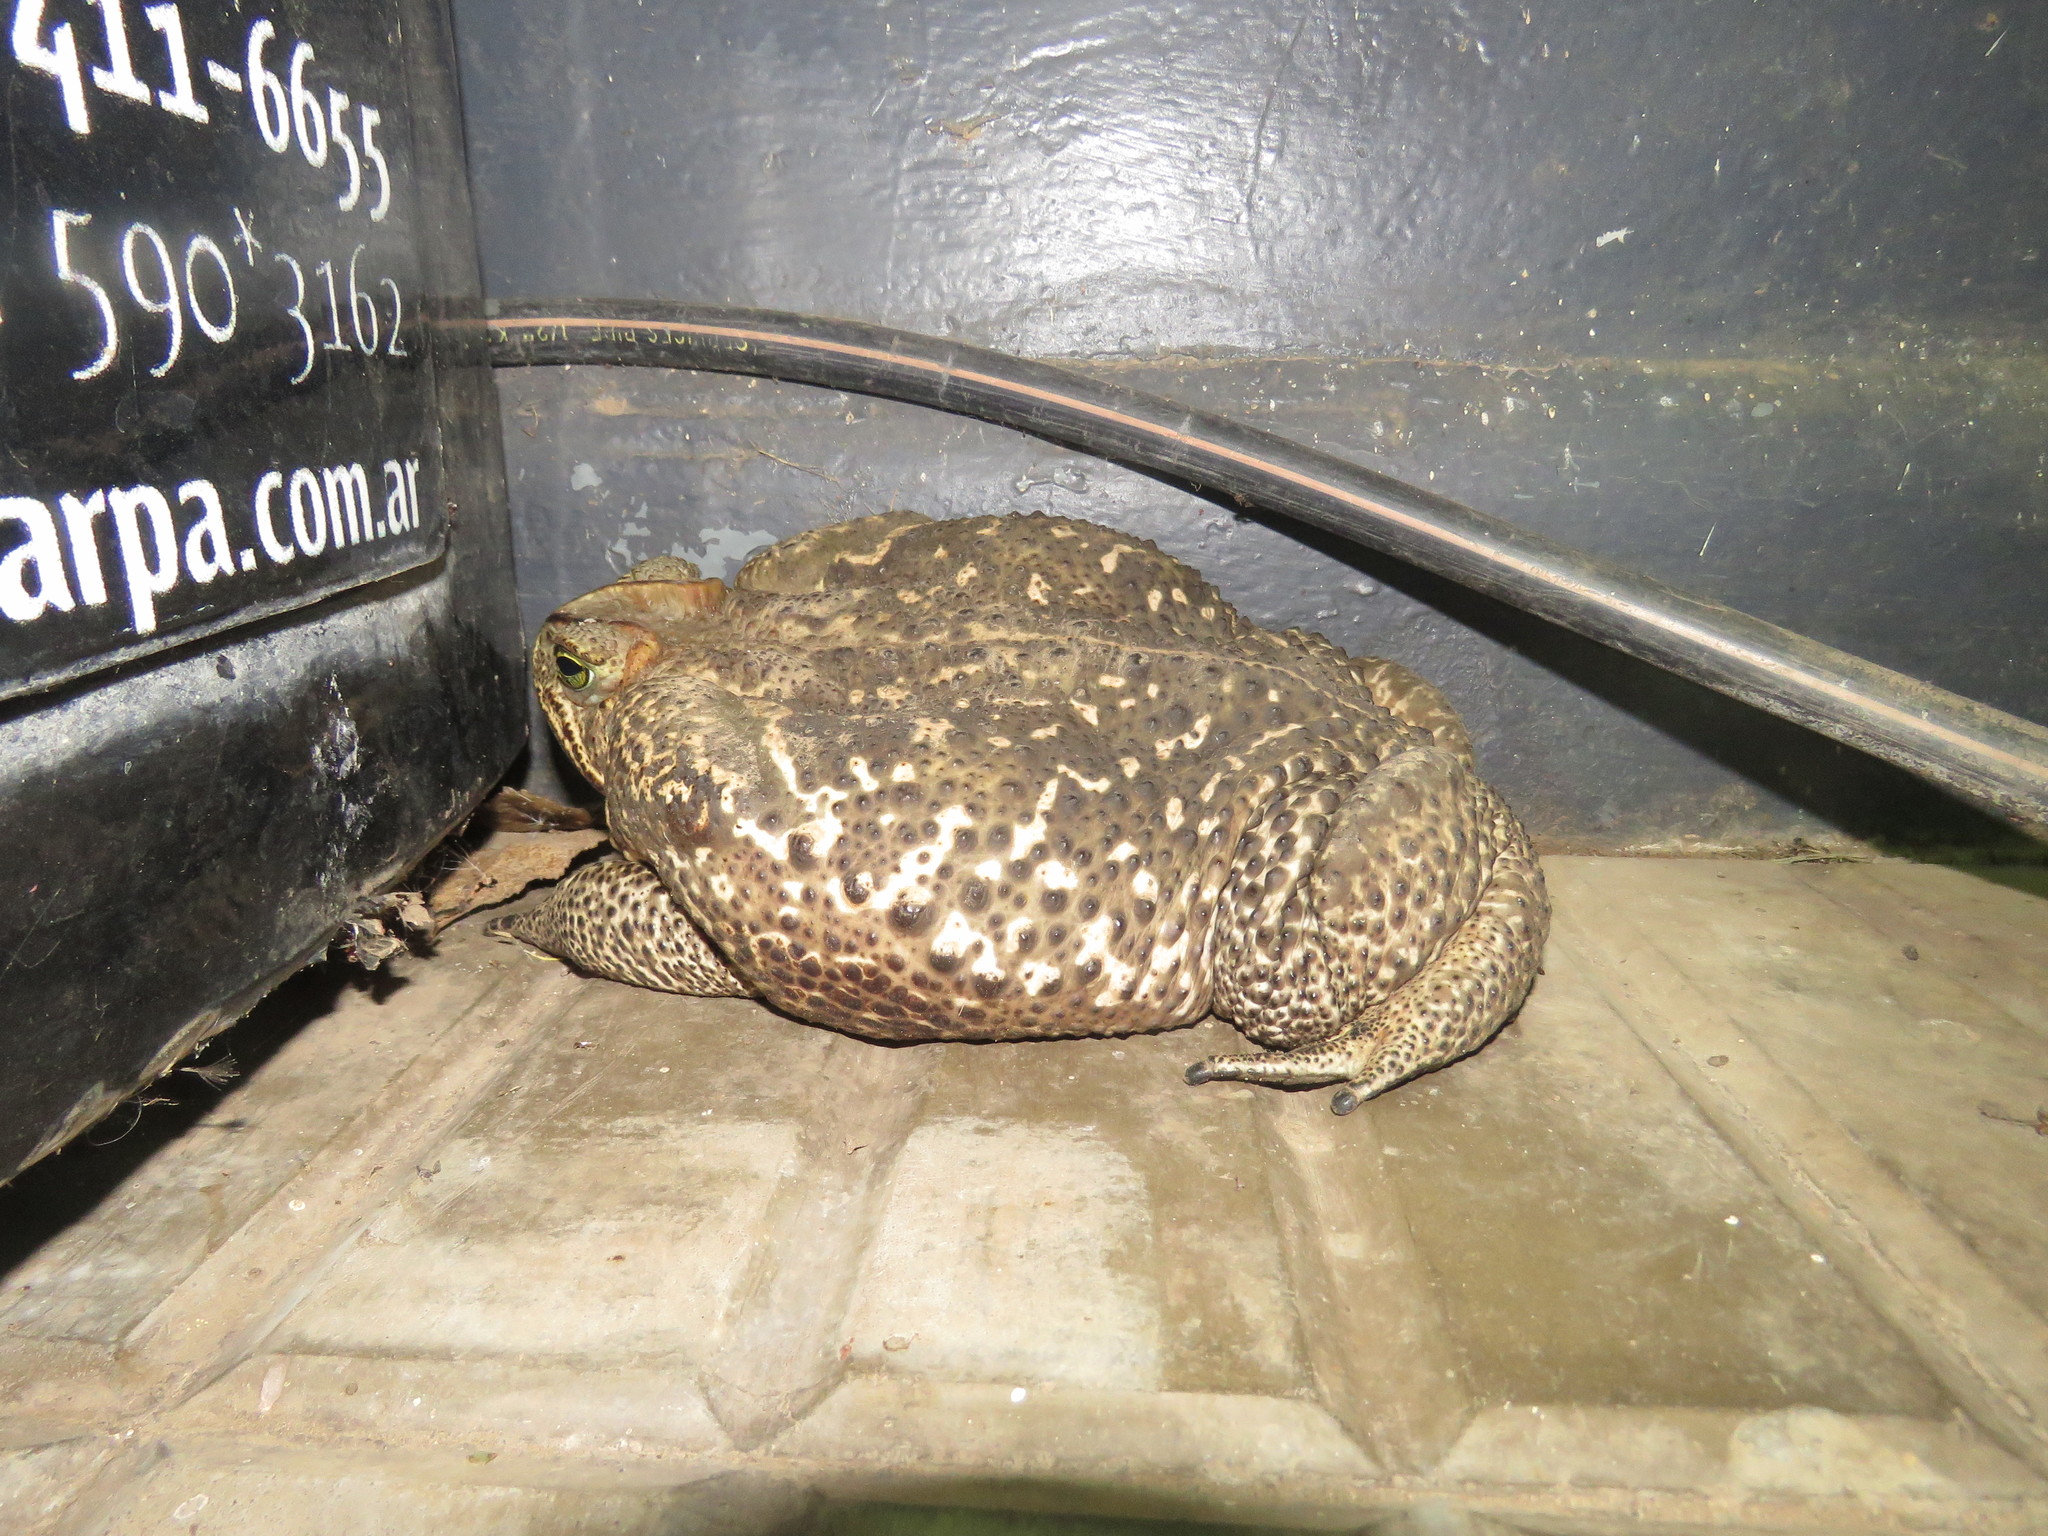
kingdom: Animalia
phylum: Chordata
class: Amphibia
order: Anura
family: Bufonidae
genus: Rhinella
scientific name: Rhinella diptycha
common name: Cope's toad
